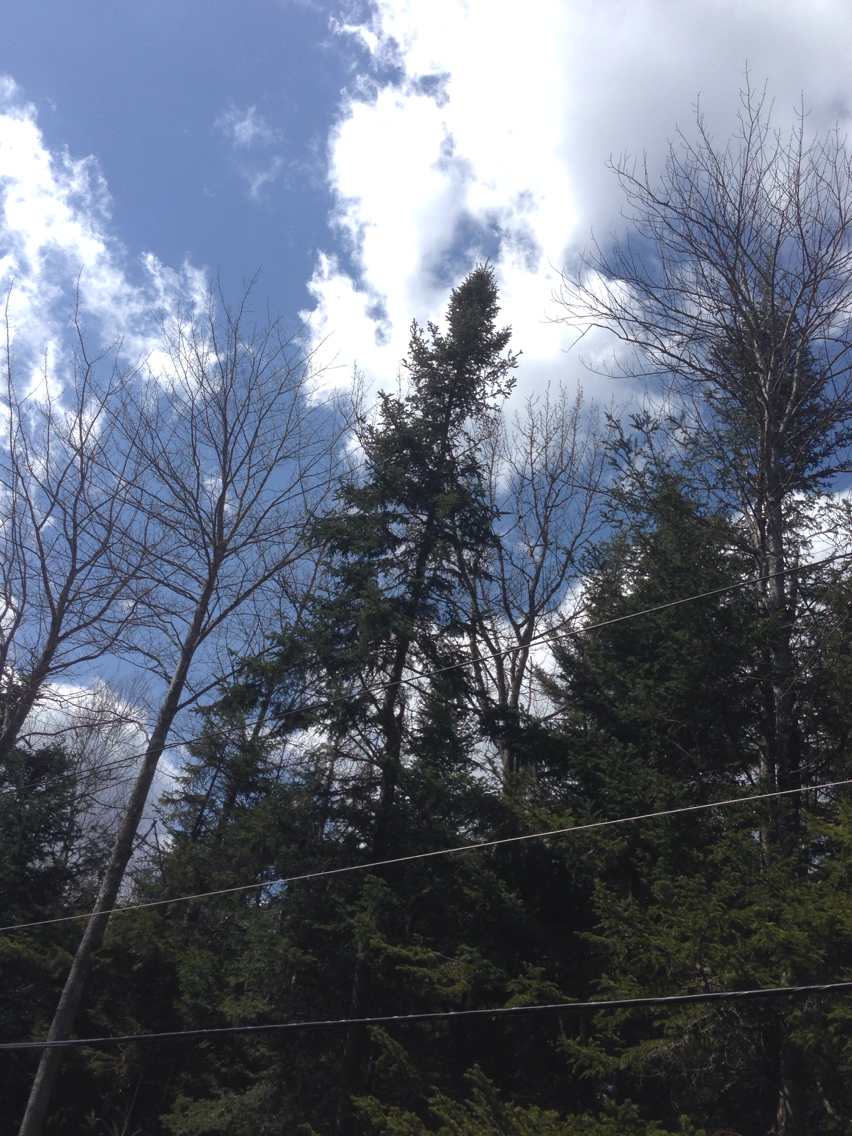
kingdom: Plantae
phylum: Tracheophyta
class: Pinopsida
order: Pinales
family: Pinaceae
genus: Abies
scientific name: Abies balsamea
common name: Balsam fir
